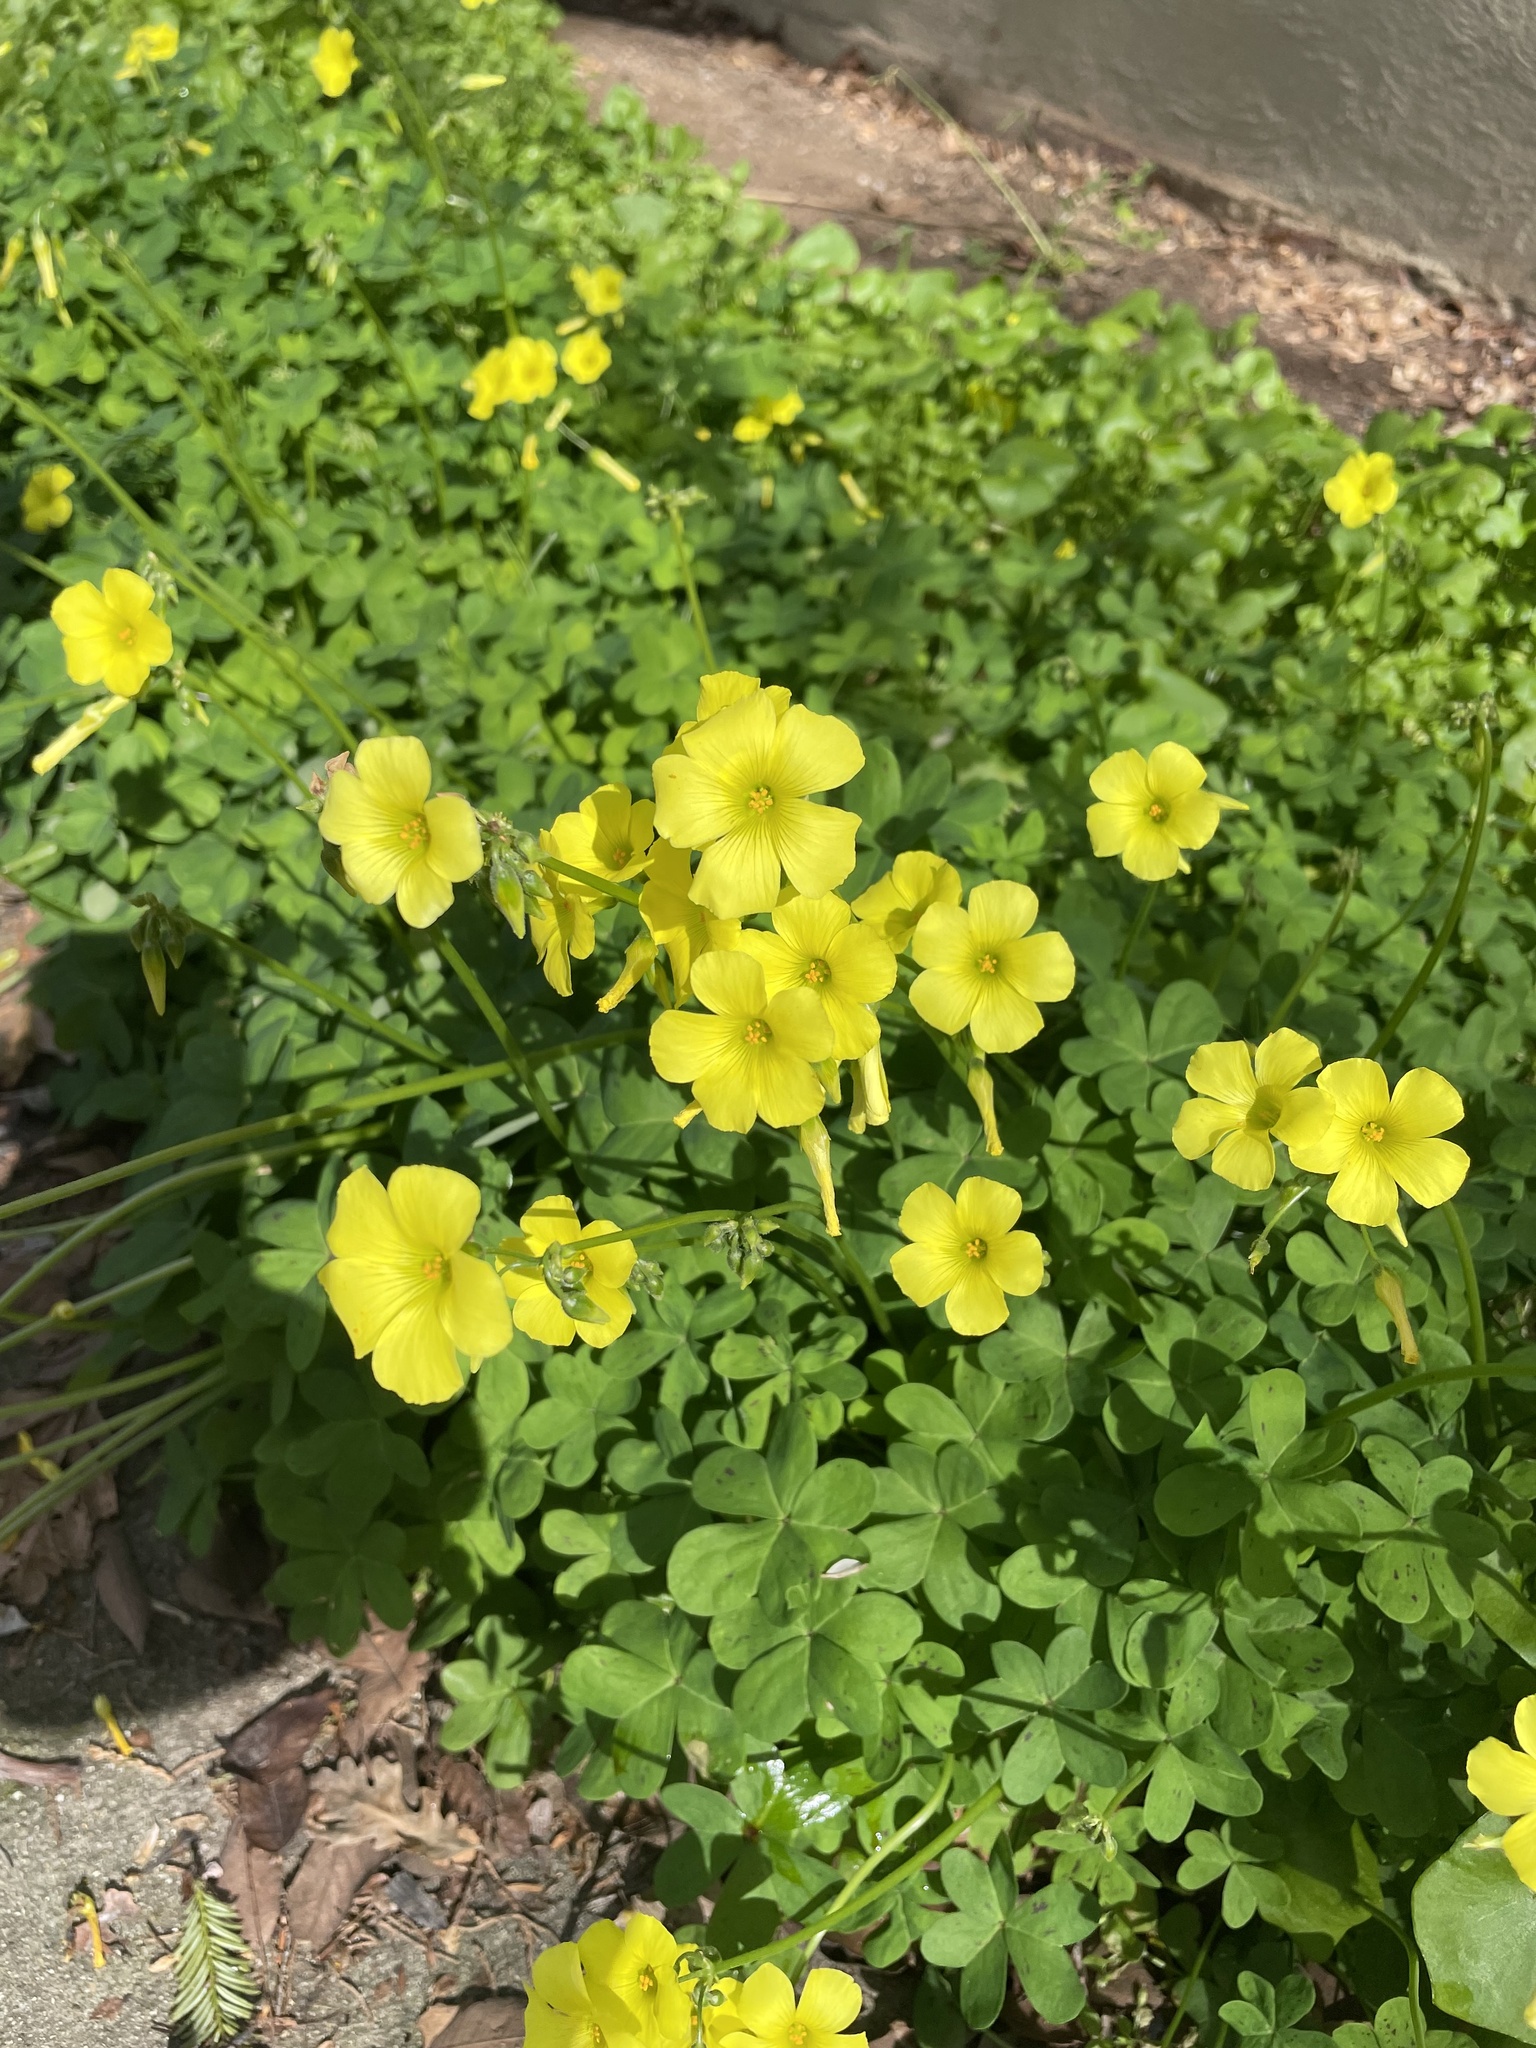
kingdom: Plantae
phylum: Tracheophyta
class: Magnoliopsida
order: Oxalidales
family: Oxalidaceae
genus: Oxalis
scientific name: Oxalis pes-caprae
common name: Bermuda-buttercup
